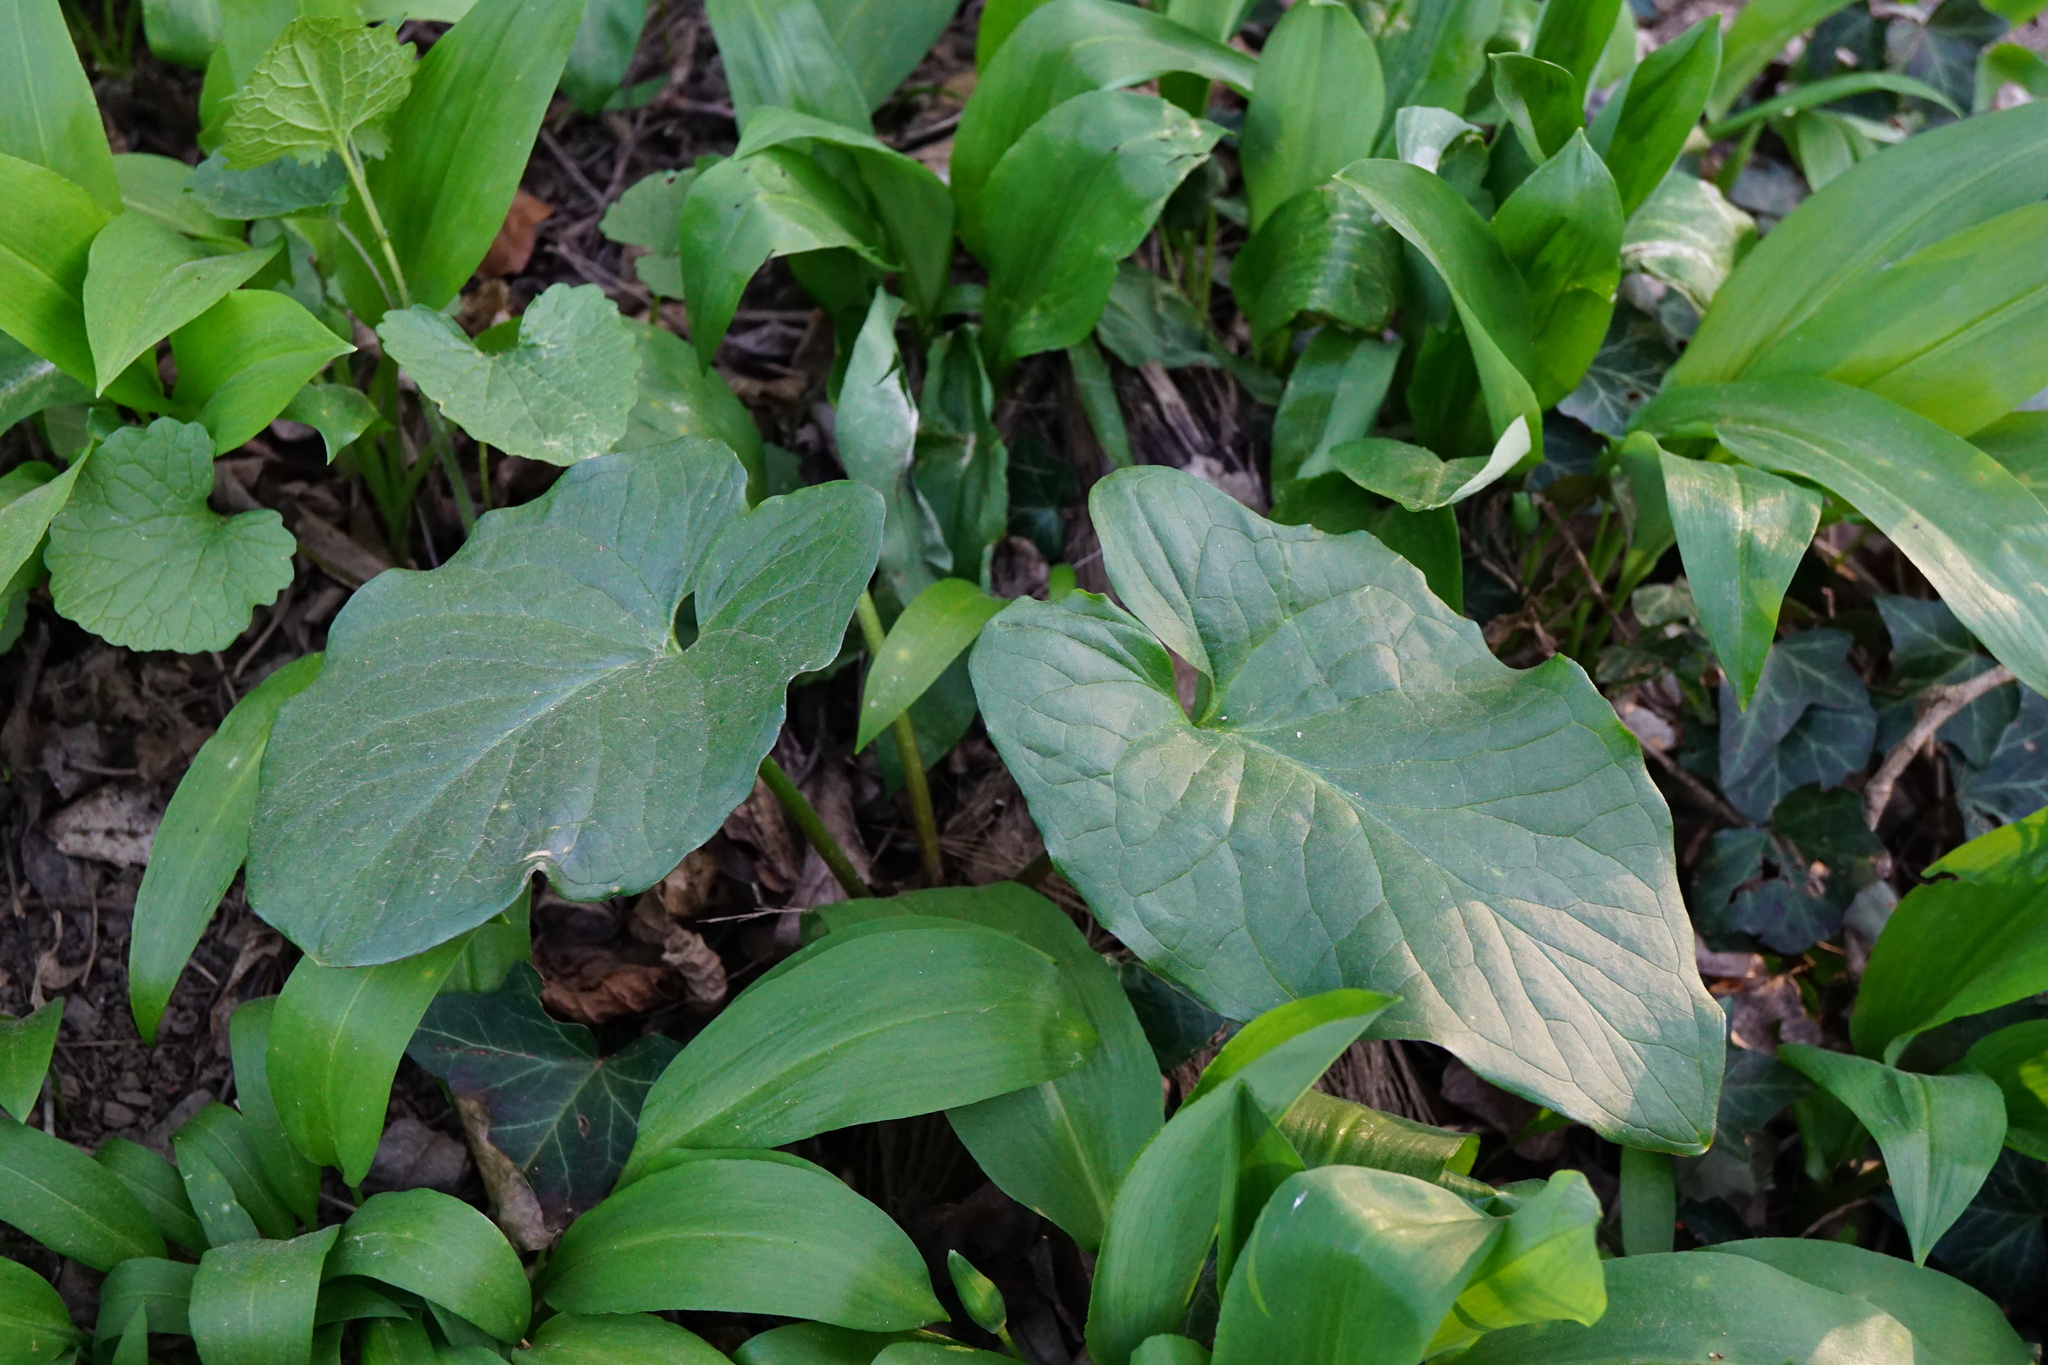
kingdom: Plantae
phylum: Tracheophyta
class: Liliopsida
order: Alismatales
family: Araceae
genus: Arum
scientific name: Arum cylindraceum
